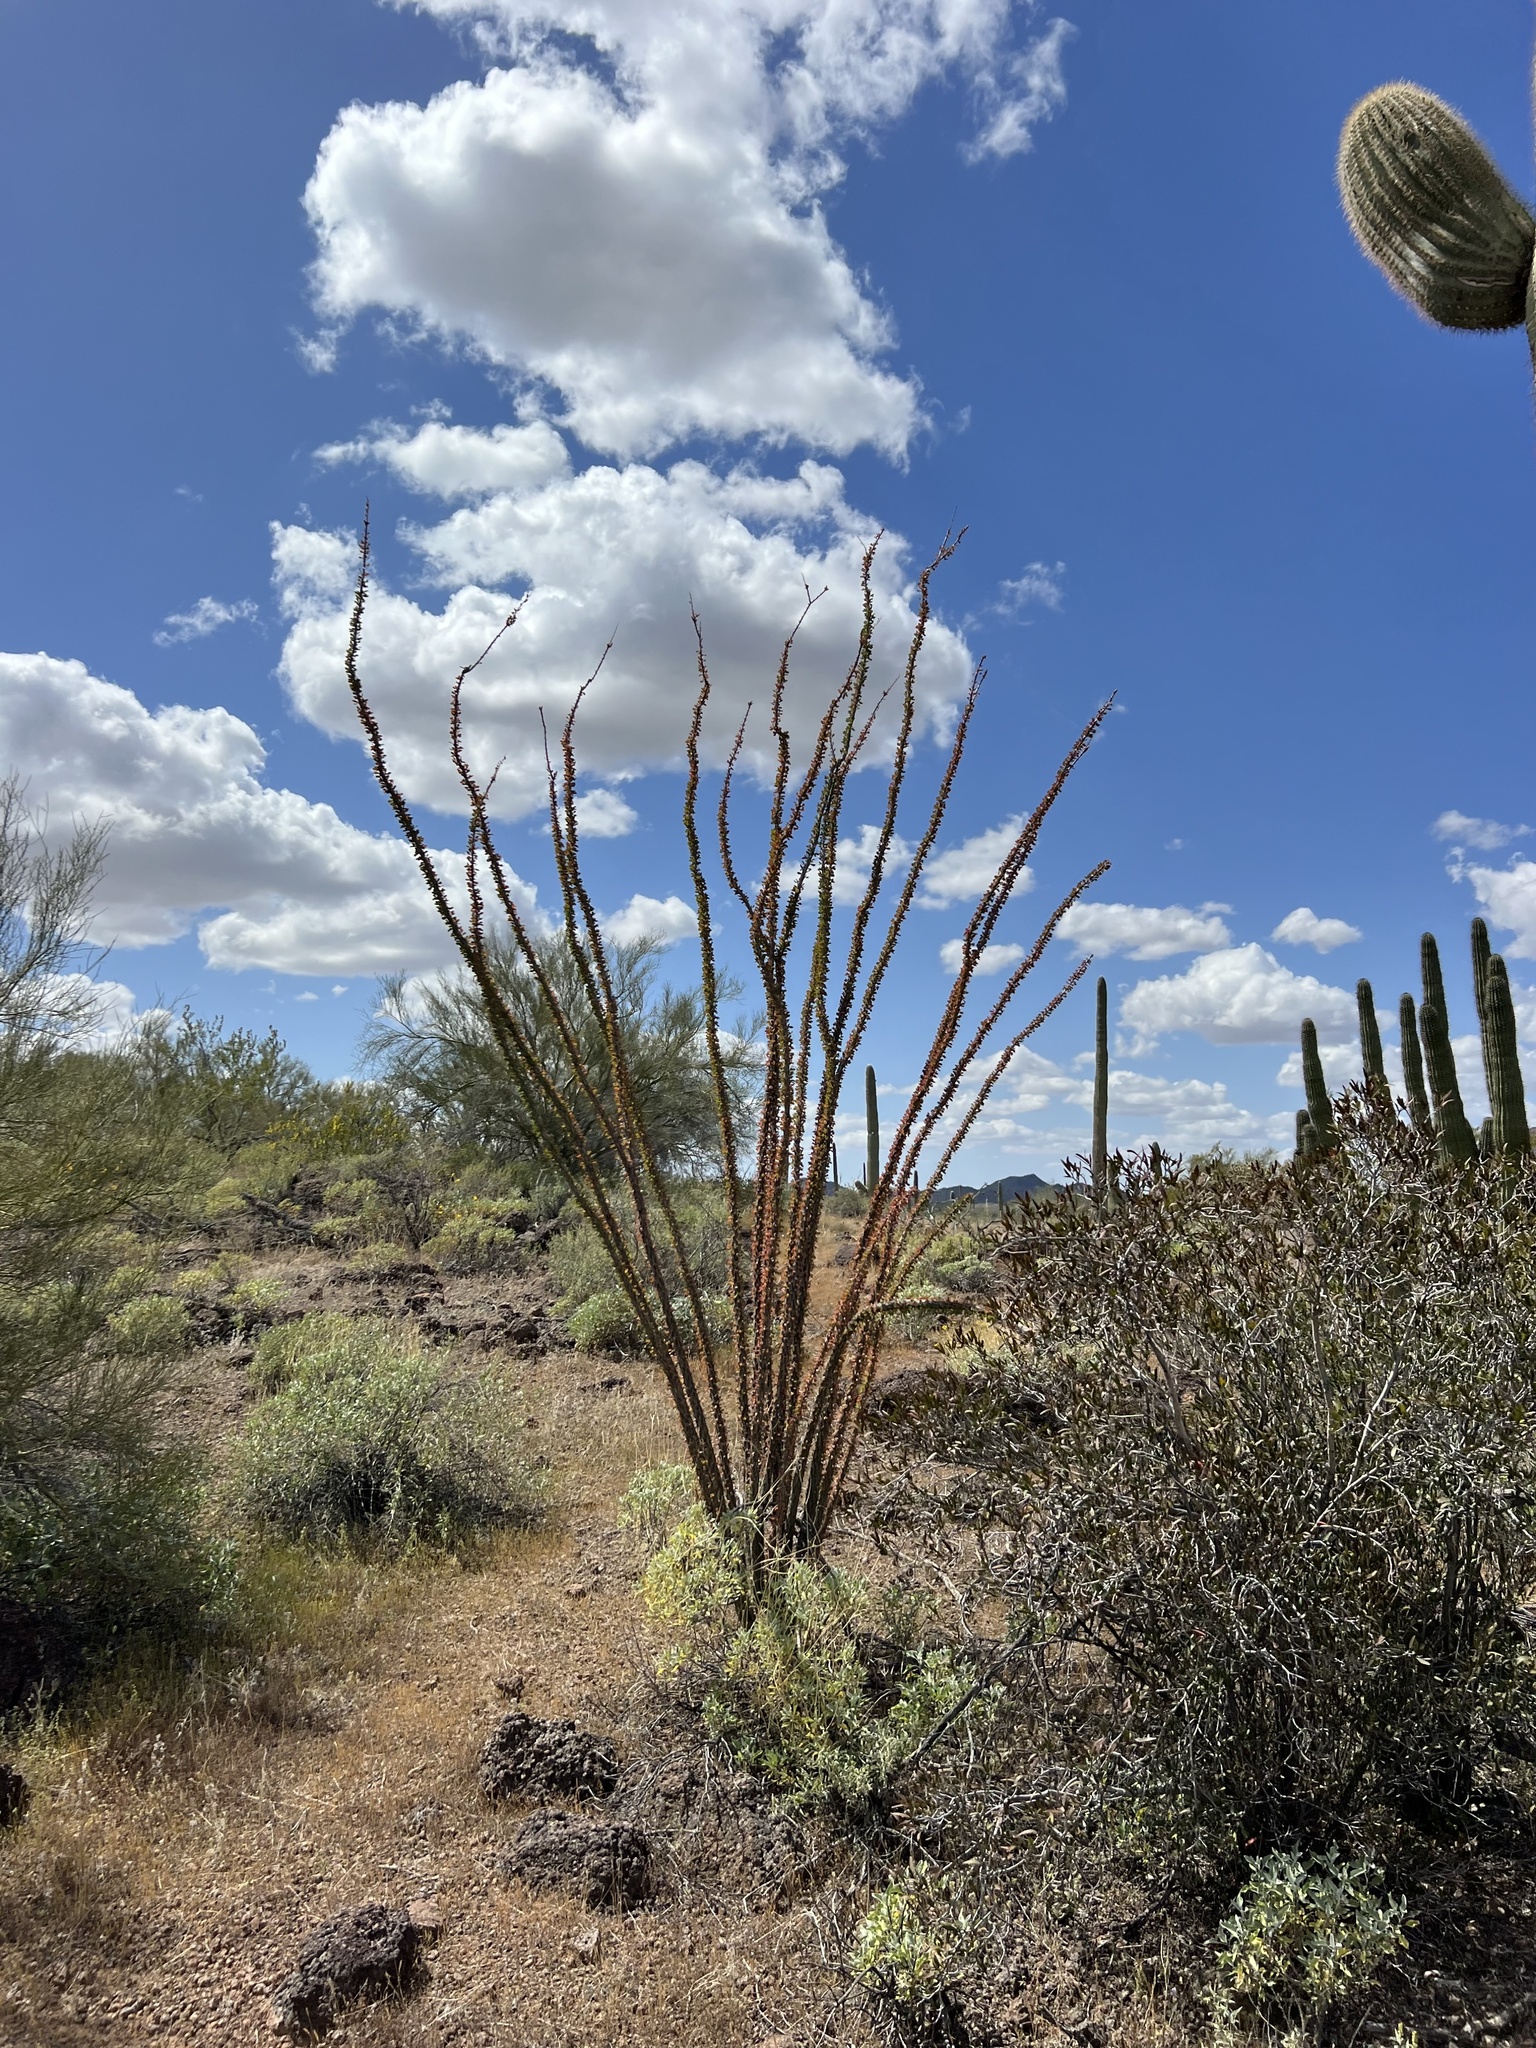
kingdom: Plantae
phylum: Tracheophyta
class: Magnoliopsida
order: Ericales
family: Fouquieriaceae
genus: Fouquieria
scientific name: Fouquieria splendens
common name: Vine-cactus
